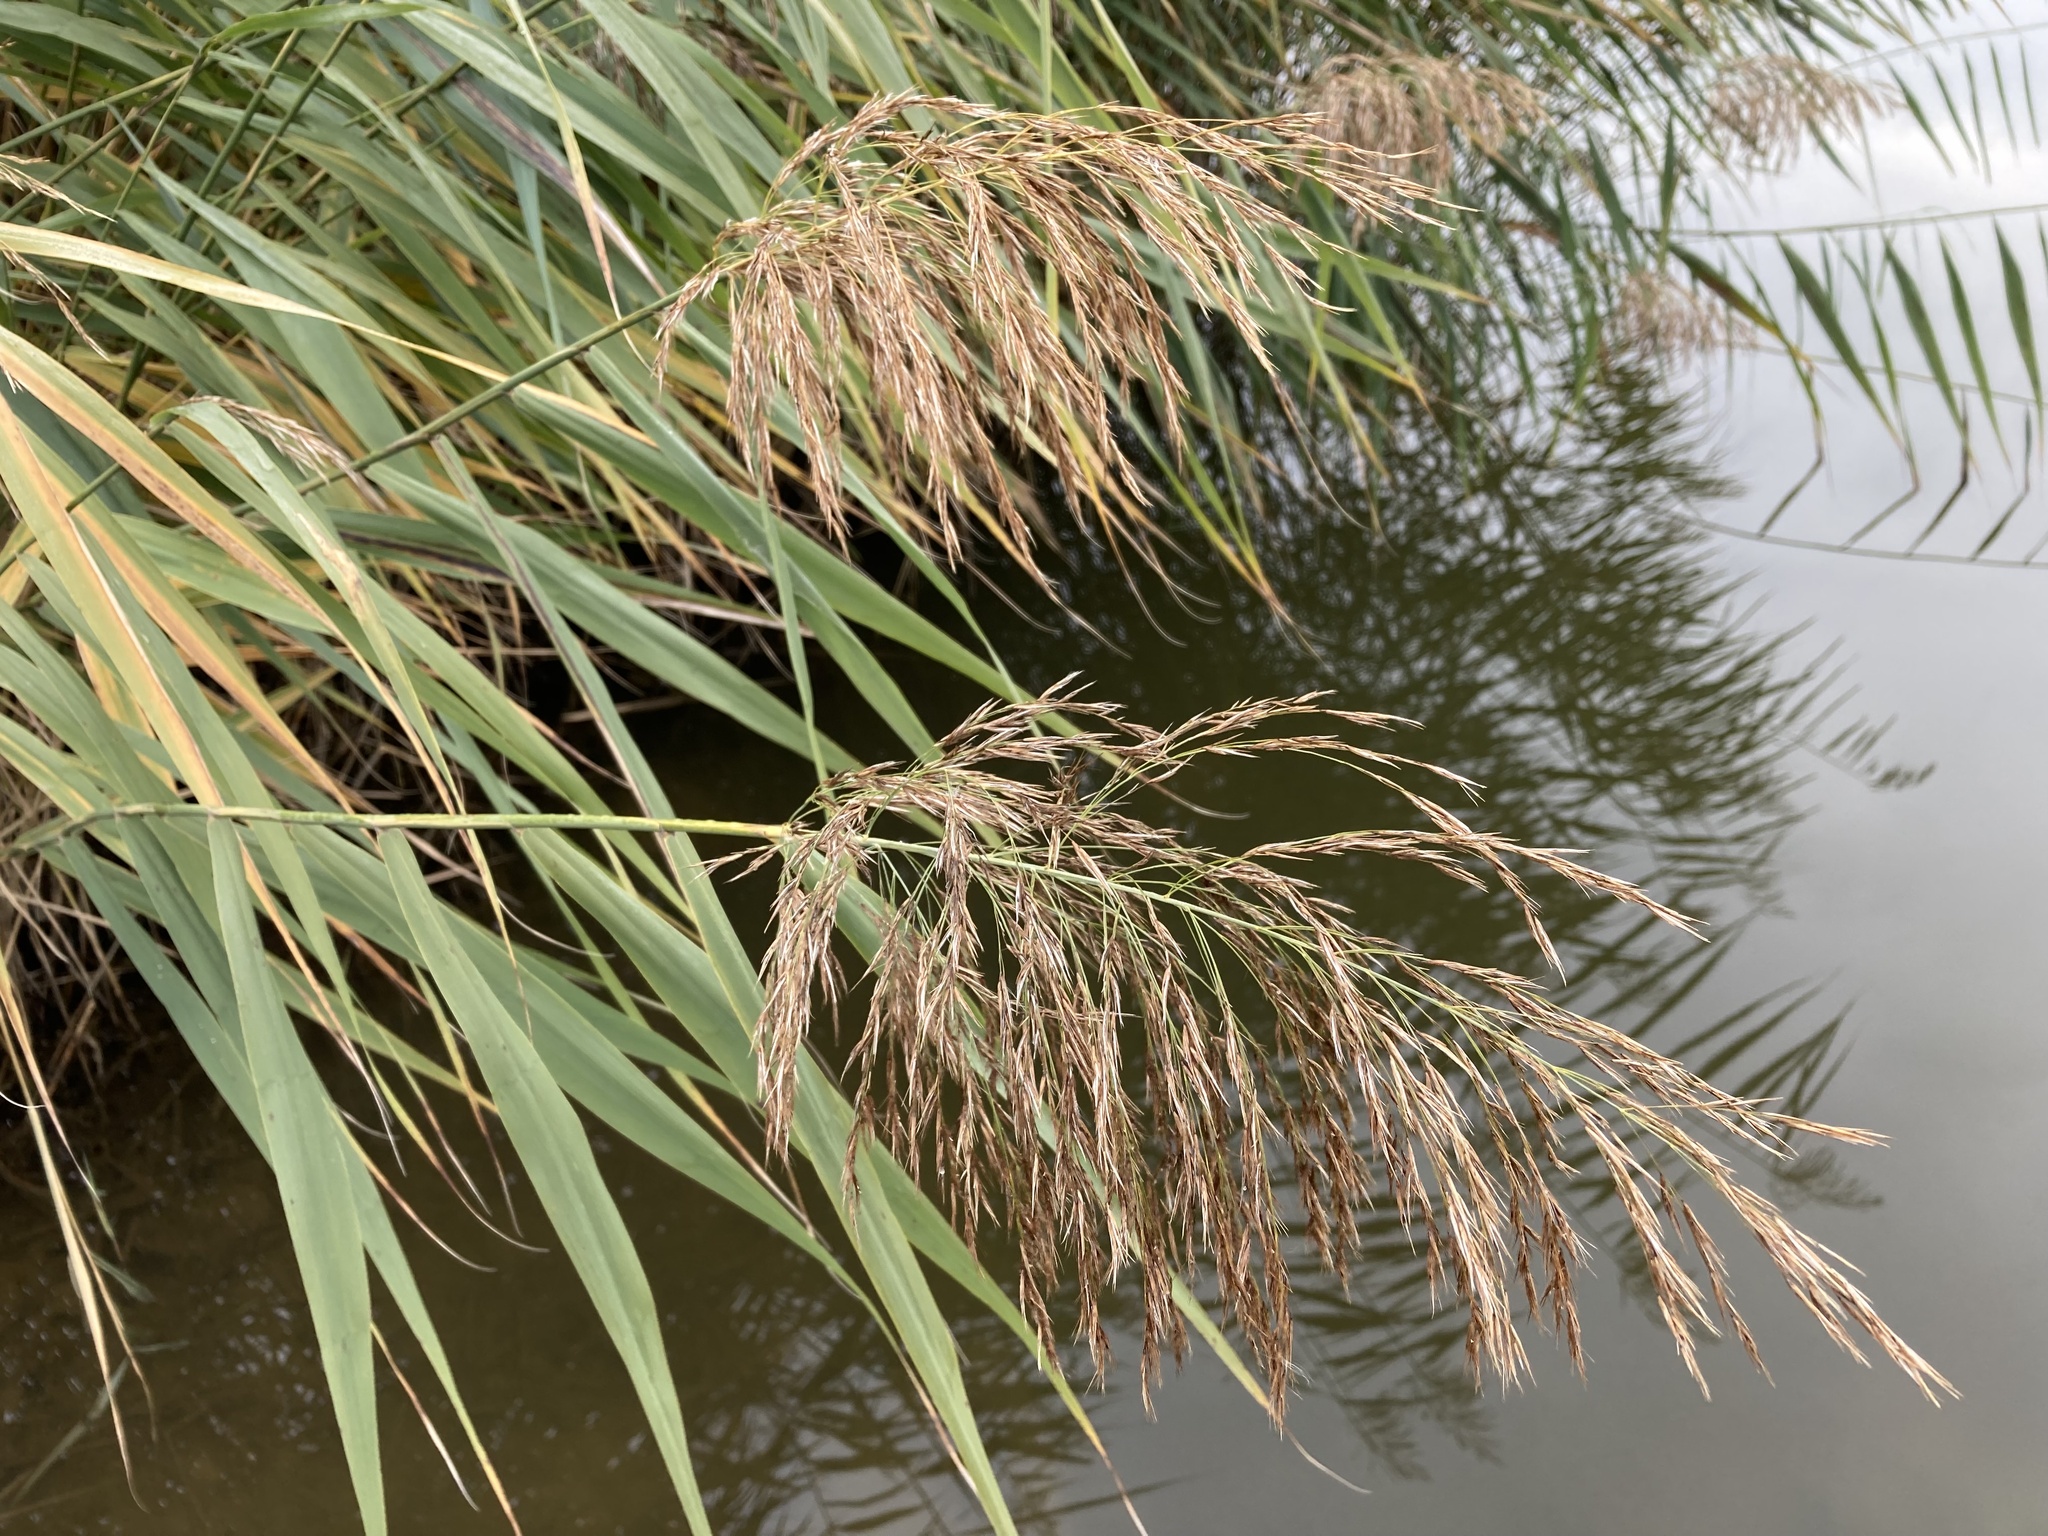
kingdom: Plantae
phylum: Tracheophyta
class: Liliopsida
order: Poales
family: Poaceae
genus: Phragmites
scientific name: Phragmites australis
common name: Common reed
